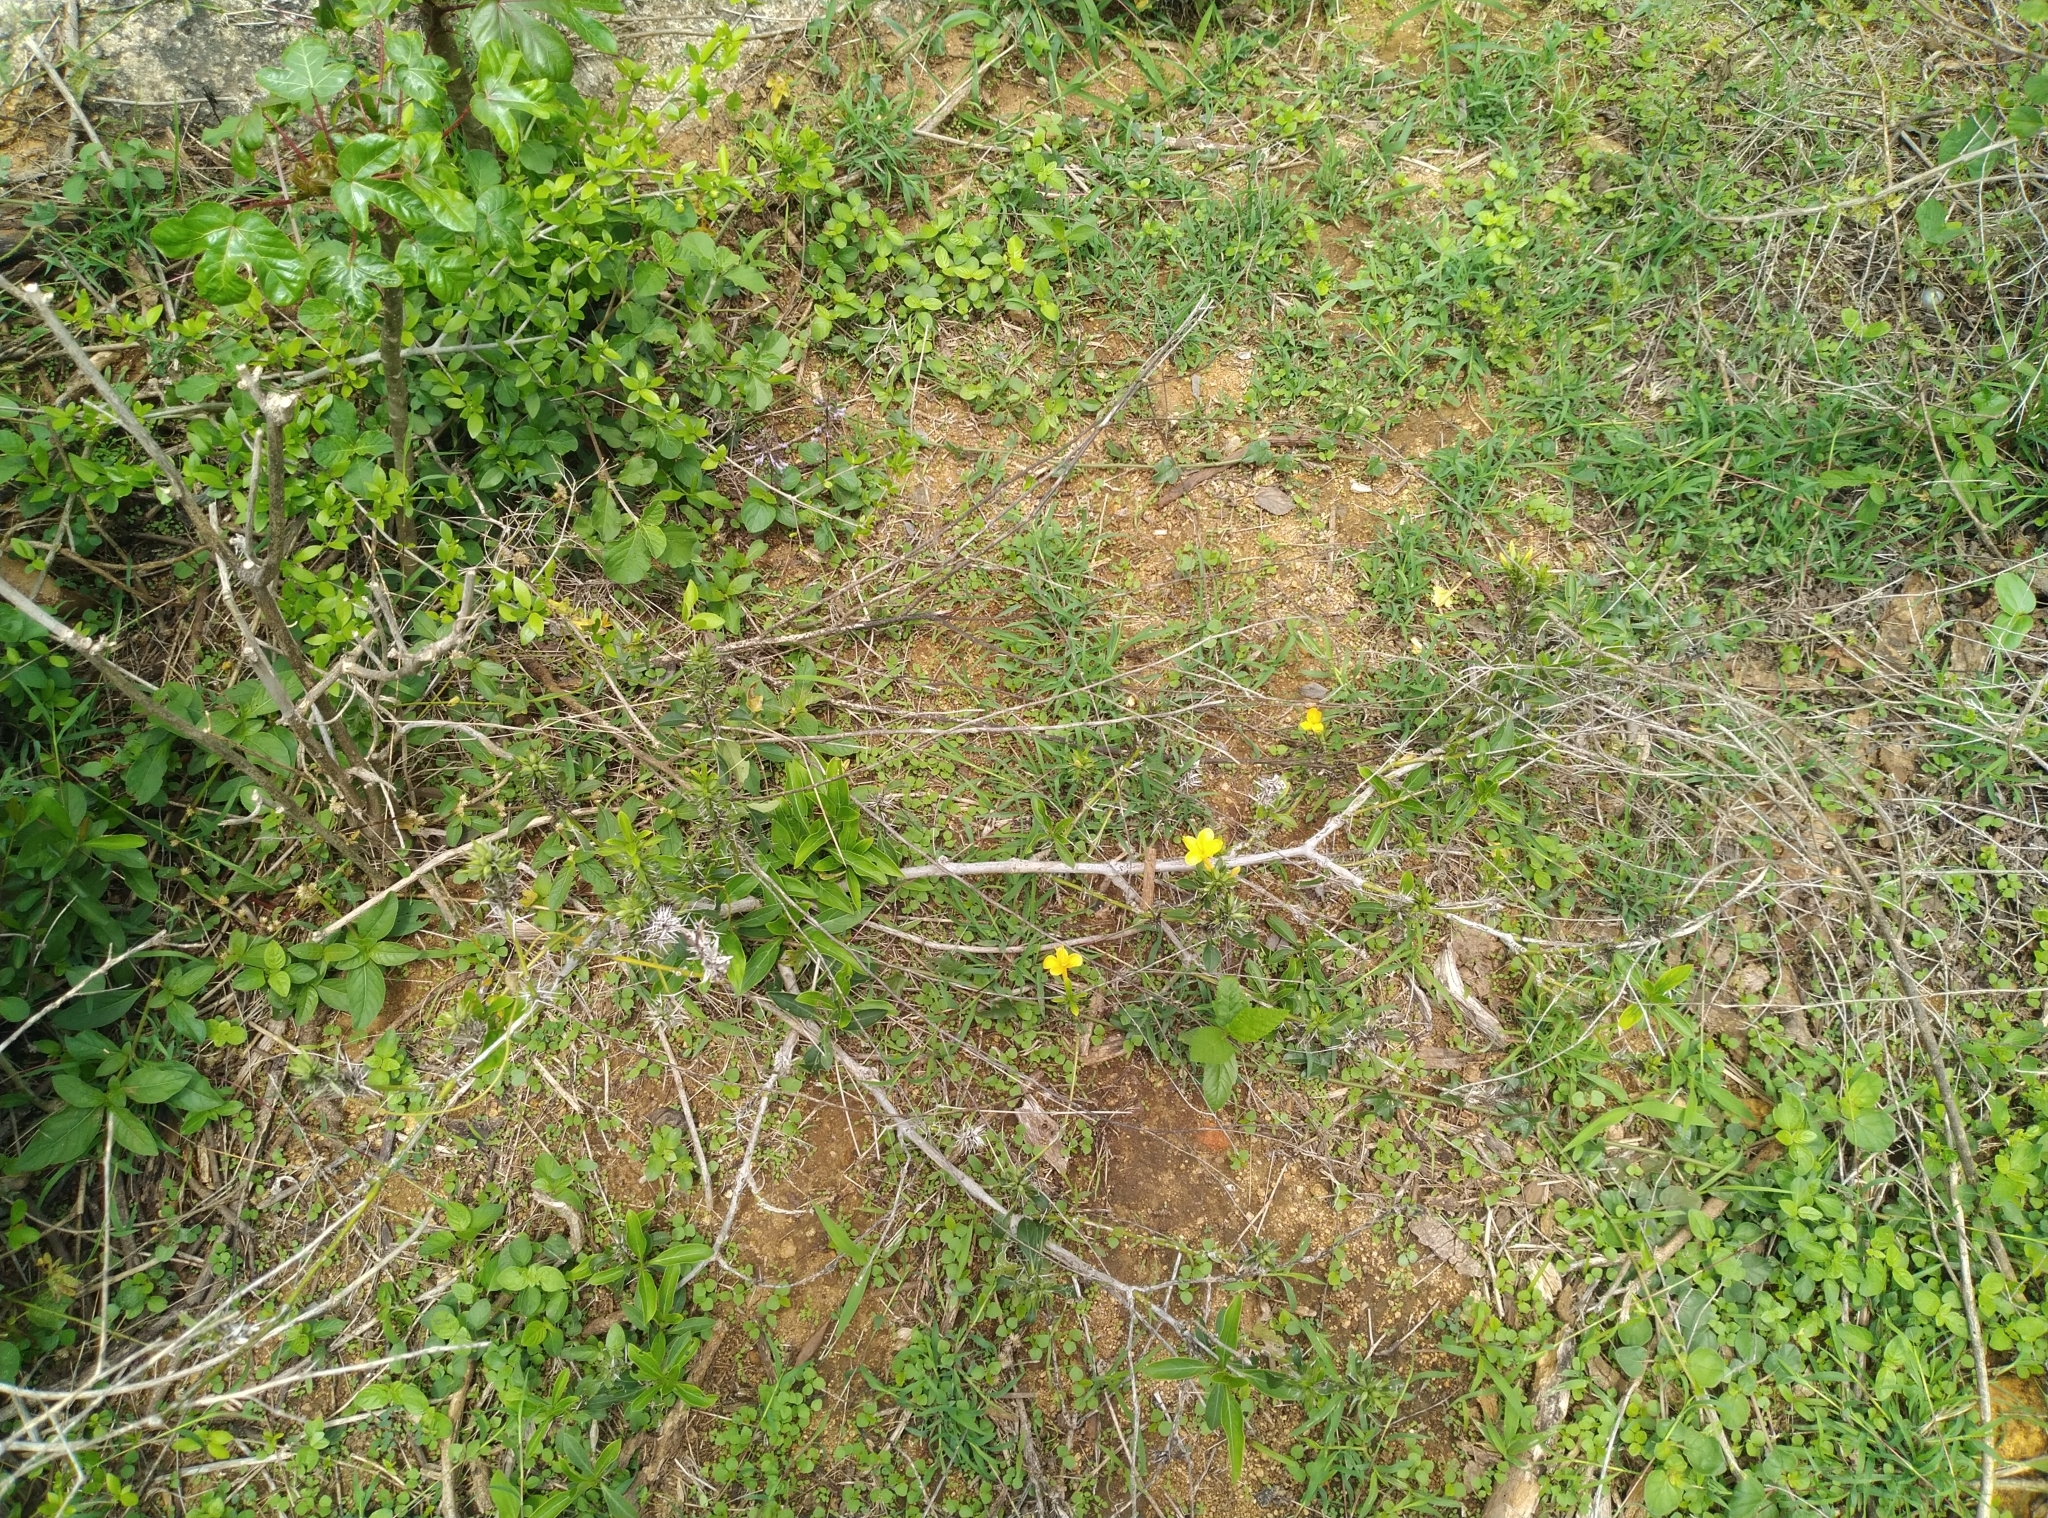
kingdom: Plantae
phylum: Tracheophyta
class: Magnoliopsida
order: Lamiales
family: Acanthaceae
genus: Barleria
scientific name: Barleria prionitis
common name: Barleria
